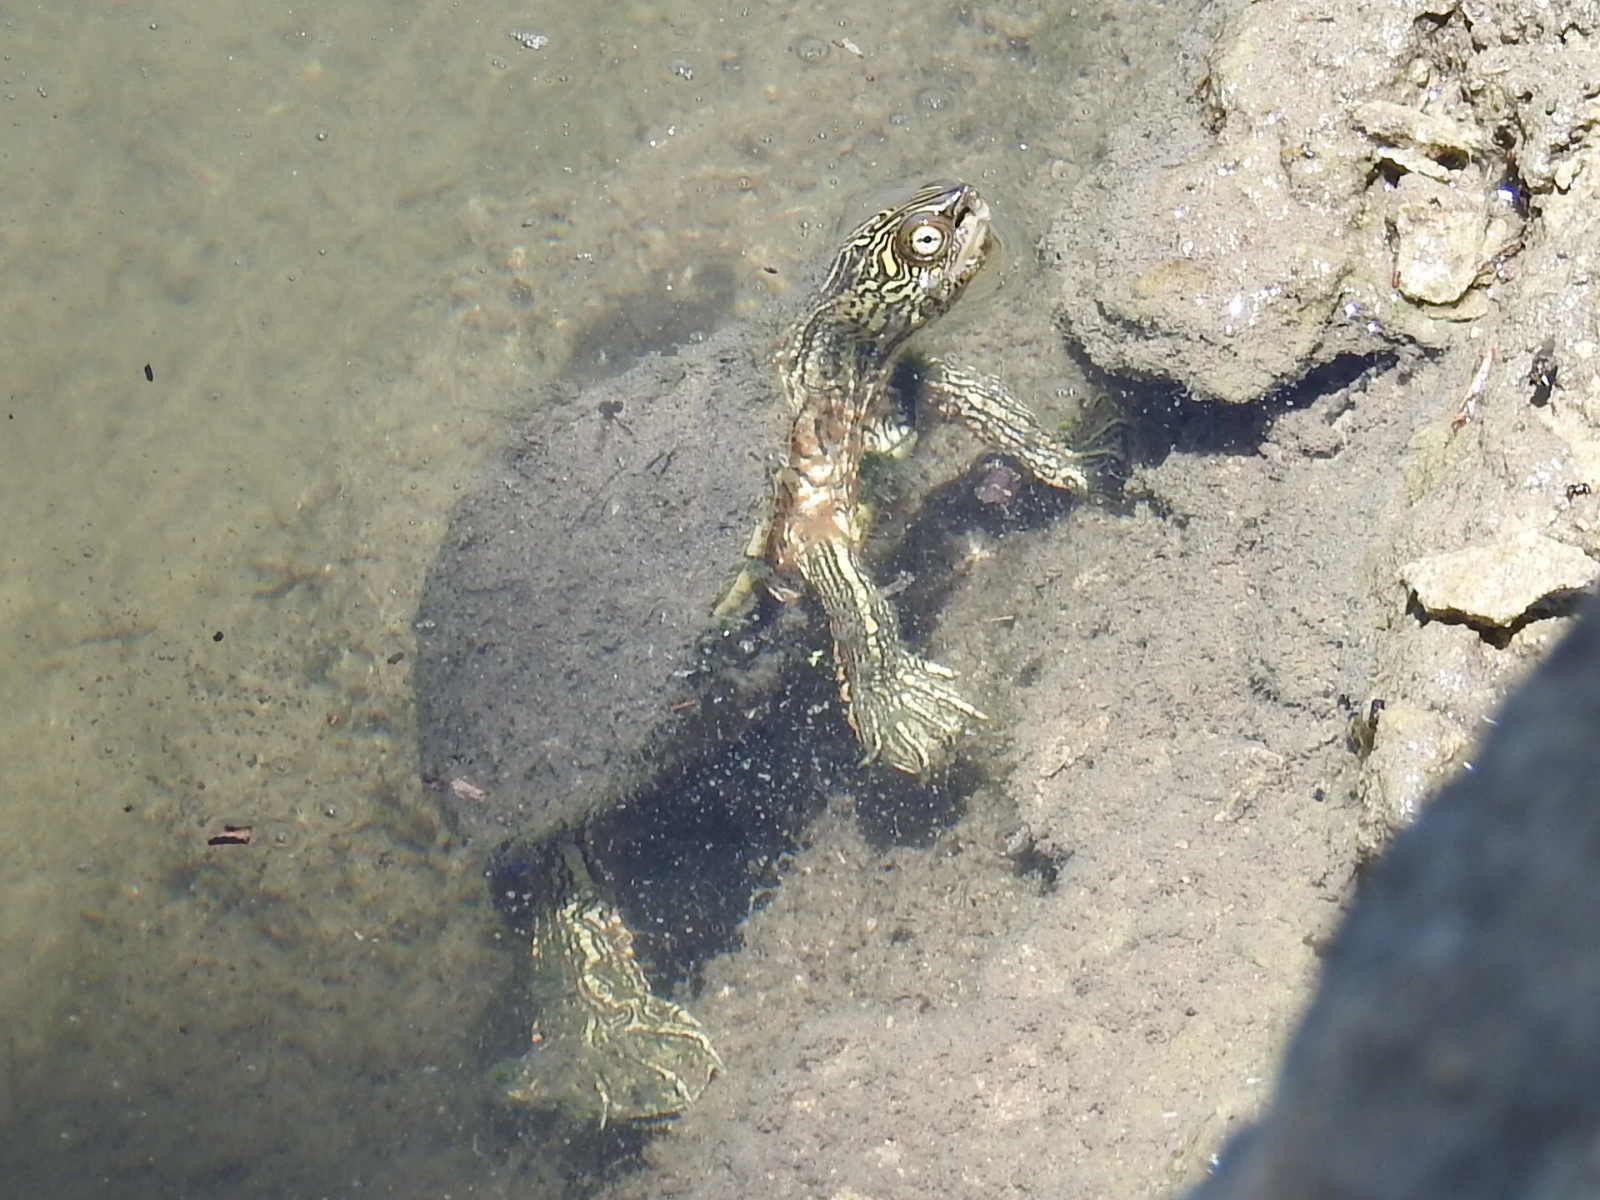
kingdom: Animalia
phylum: Chordata
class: Testudines
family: Emydidae
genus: Graptemys
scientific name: Graptemys versa
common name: Texas map turtle
